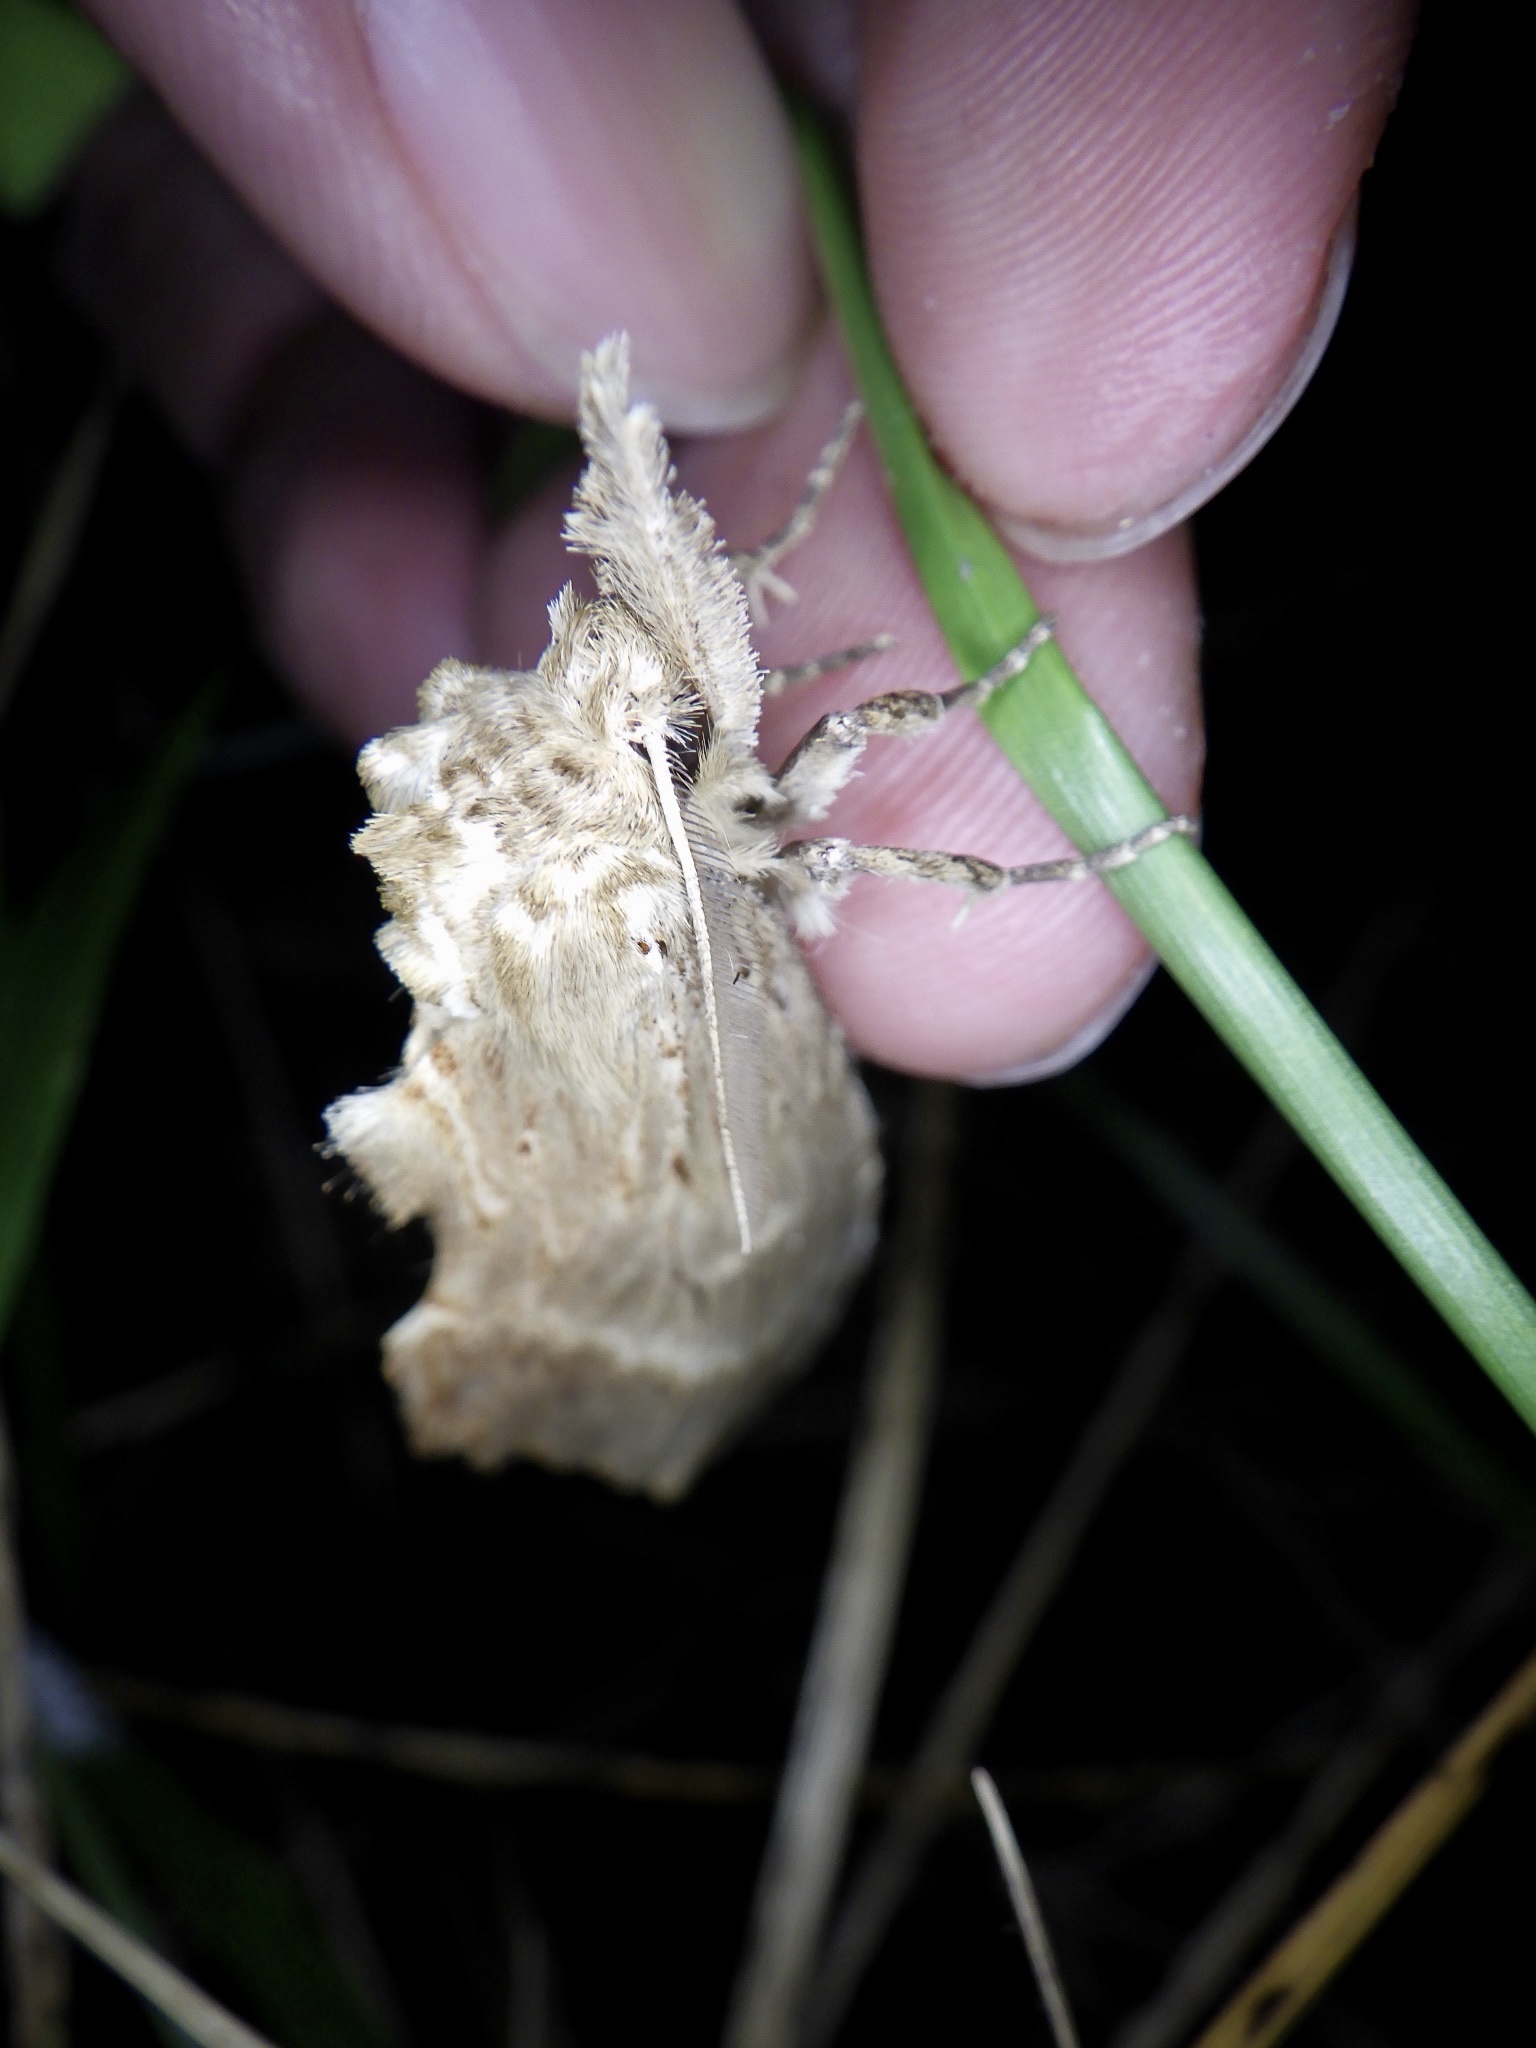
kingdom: Animalia
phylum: Arthropoda
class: Insecta
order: Lepidoptera
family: Notodontidae
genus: Pterostoma
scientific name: Pterostoma gigantina
